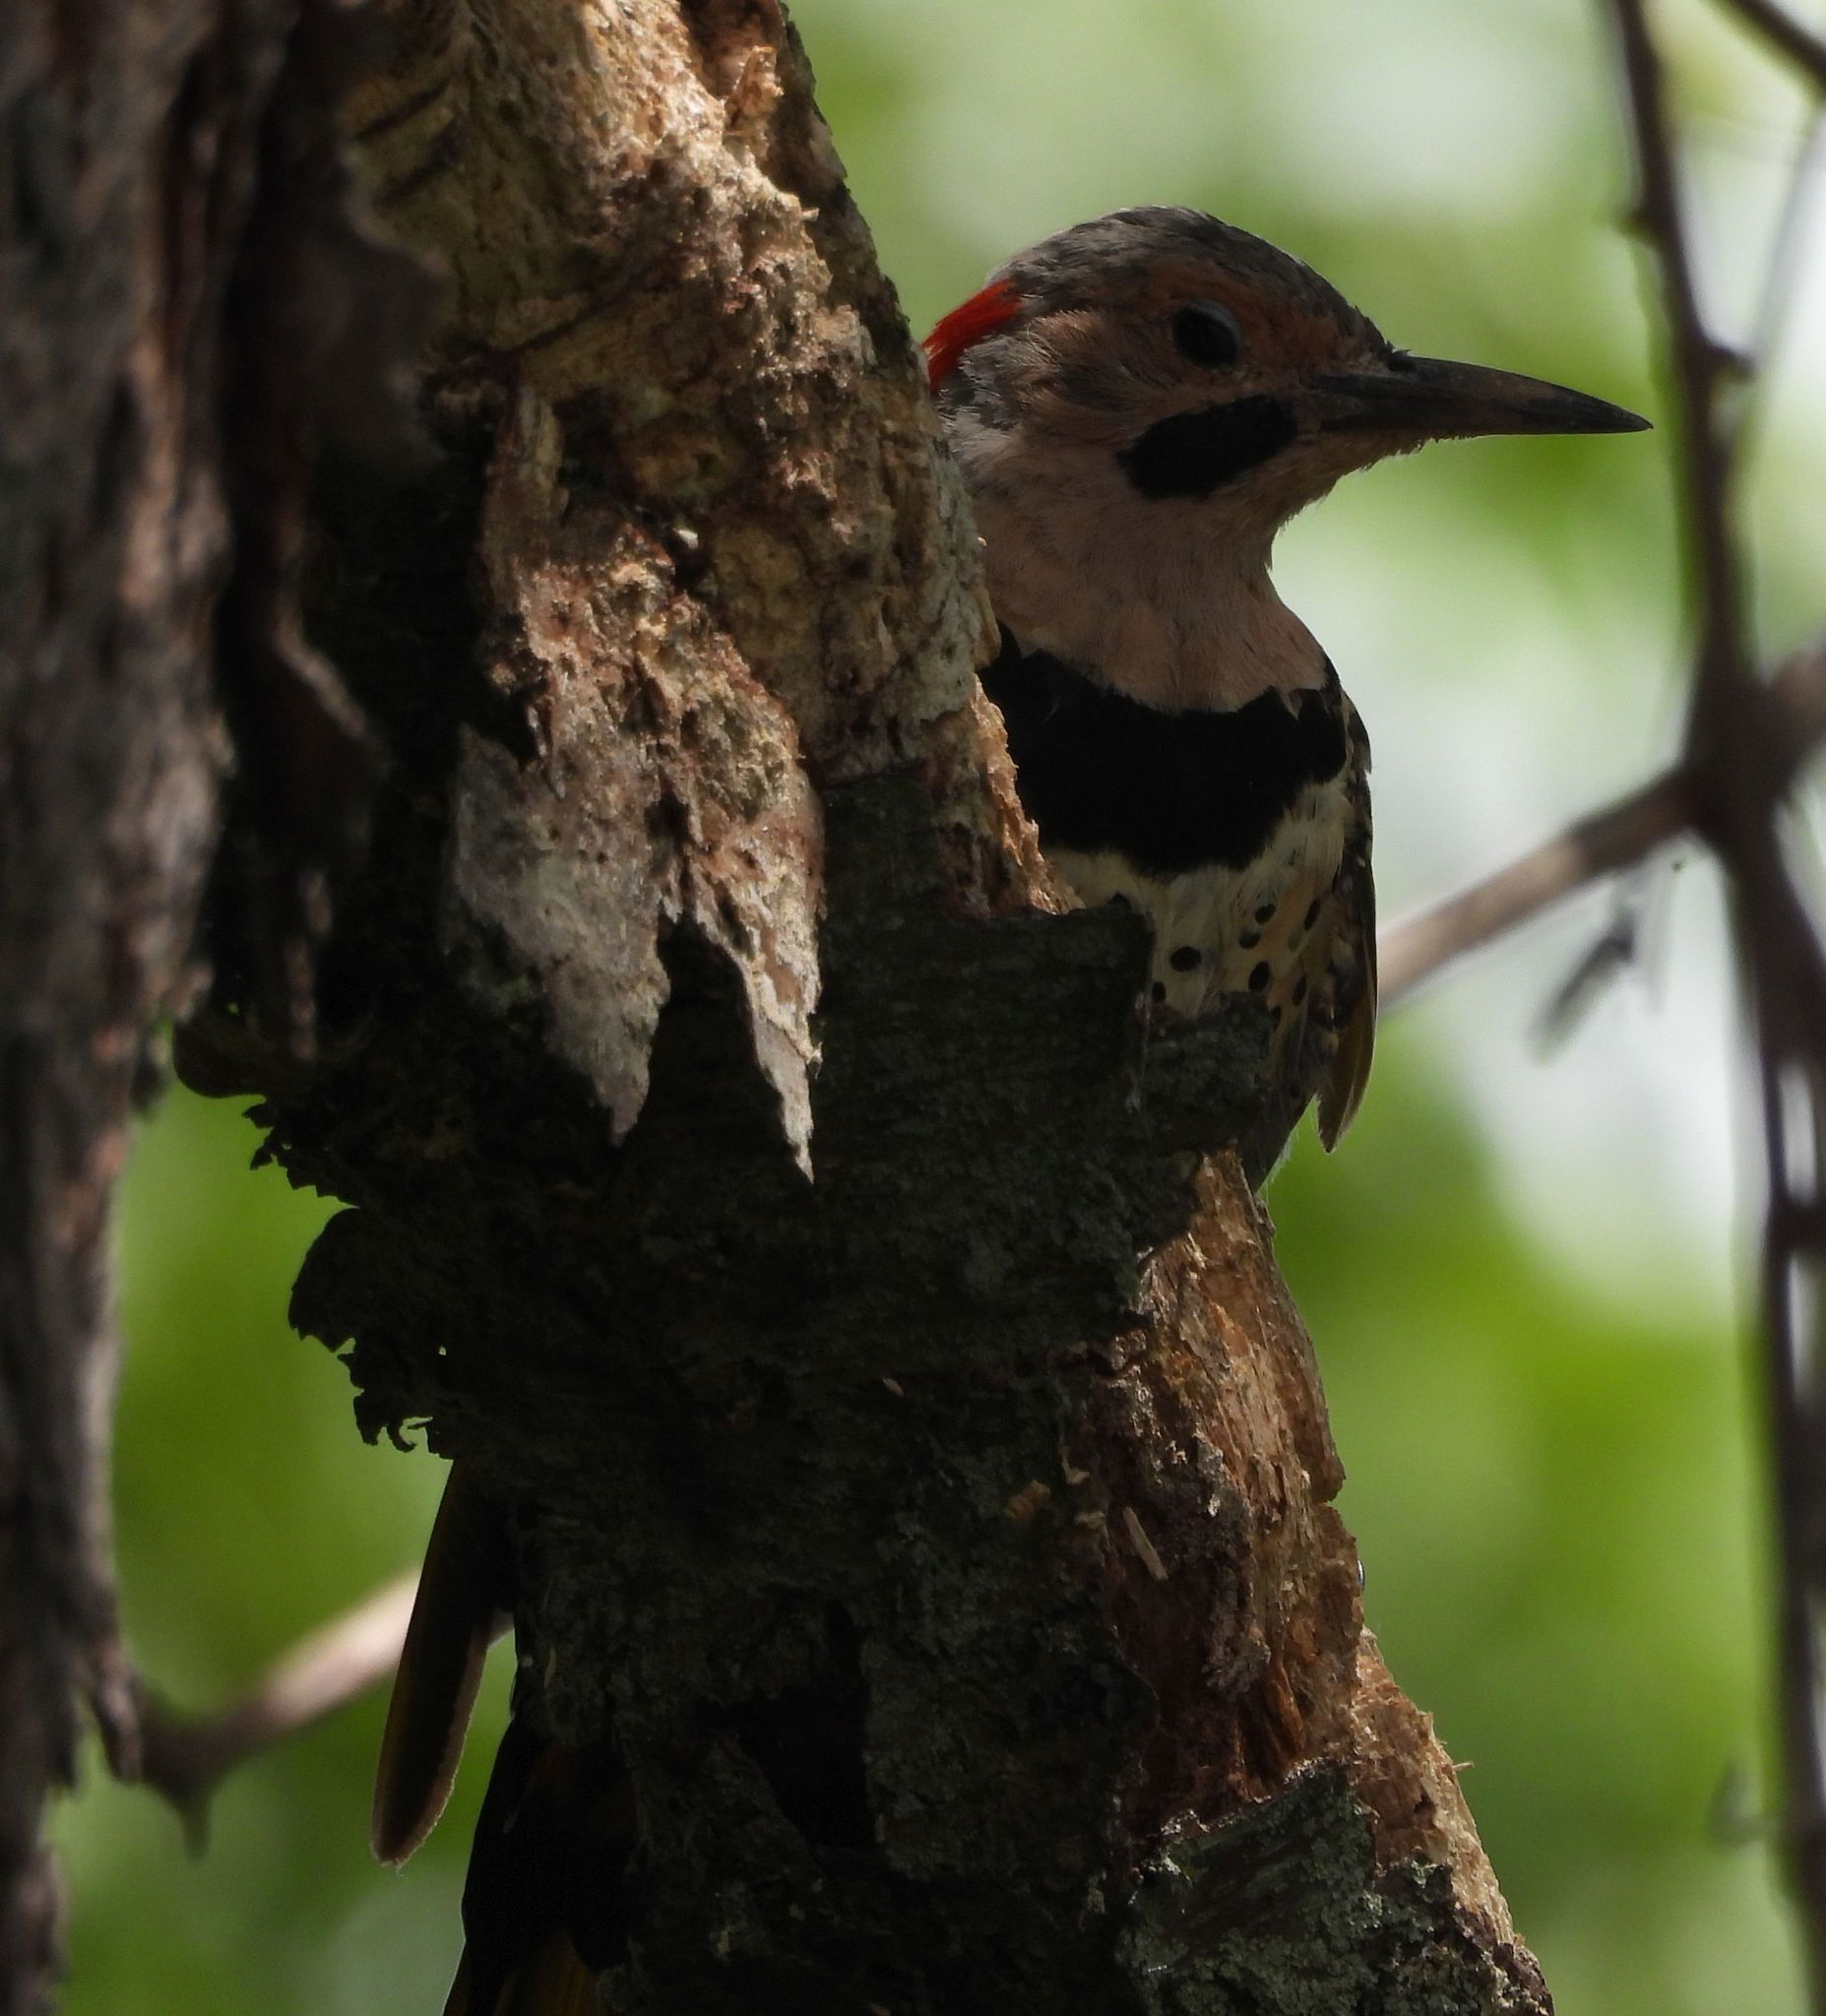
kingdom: Animalia
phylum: Chordata
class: Aves
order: Piciformes
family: Picidae
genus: Colaptes
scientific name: Colaptes auratus
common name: Northern flicker
